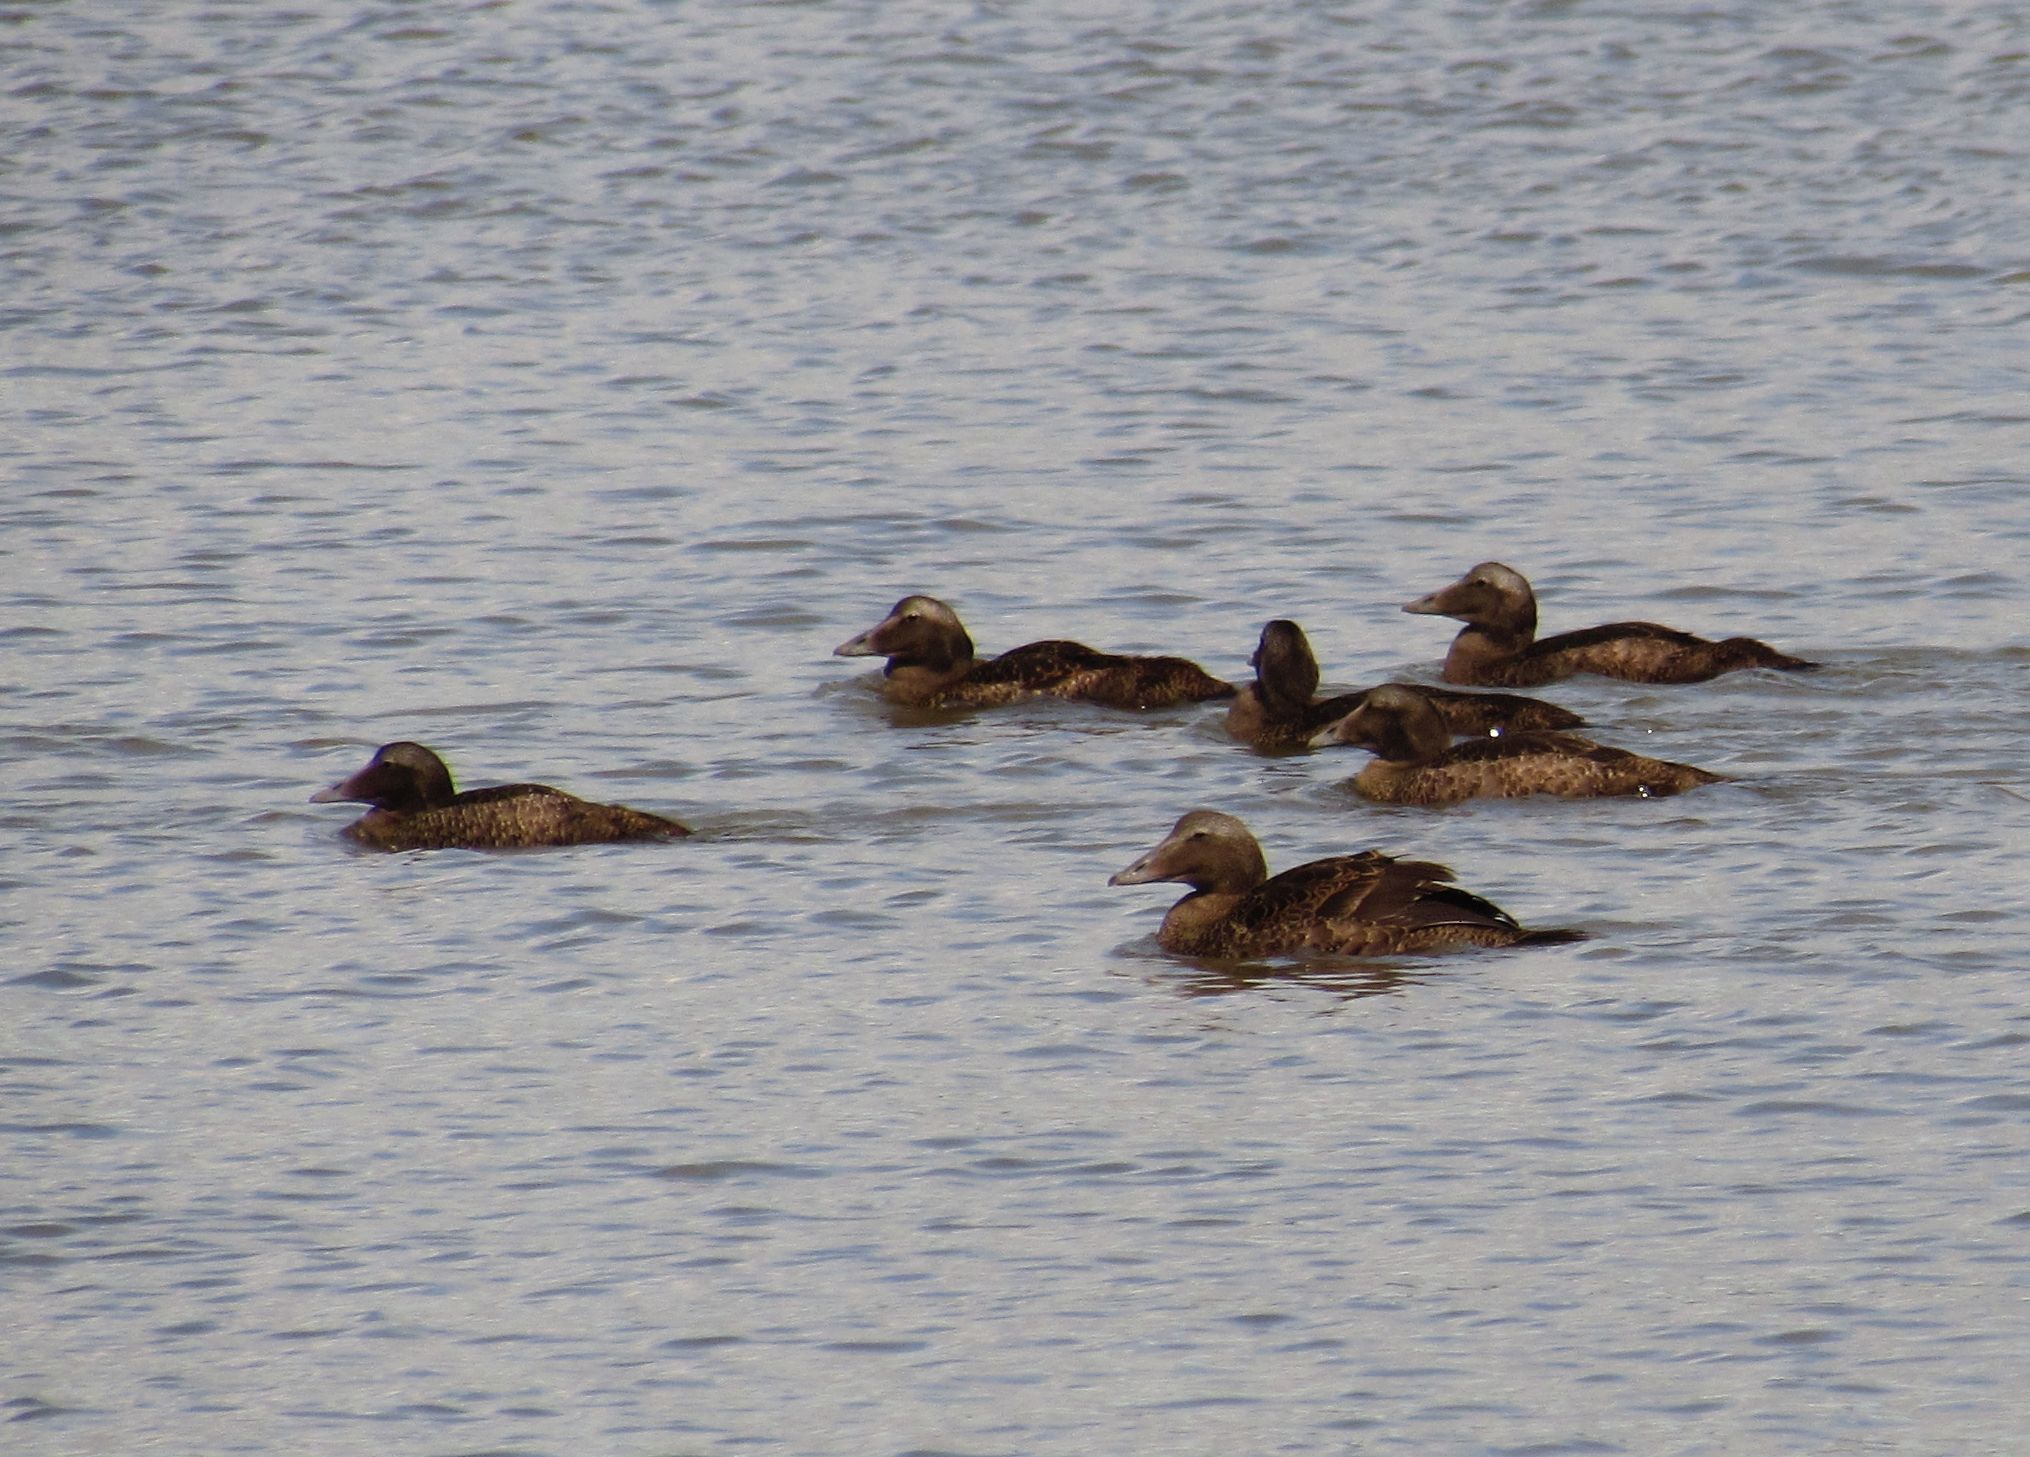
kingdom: Animalia
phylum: Chordata
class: Aves
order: Anseriformes
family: Anatidae
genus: Somateria
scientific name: Somateria mollissima
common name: Common eider
